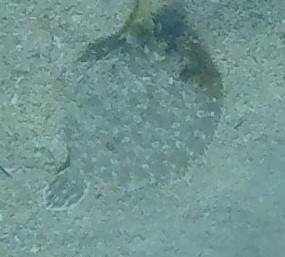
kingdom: Animalia
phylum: Chordata
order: Pleuronectiformes
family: Bothidae
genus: Bothus
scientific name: Bothus podas
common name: Wide-eyed flounder
